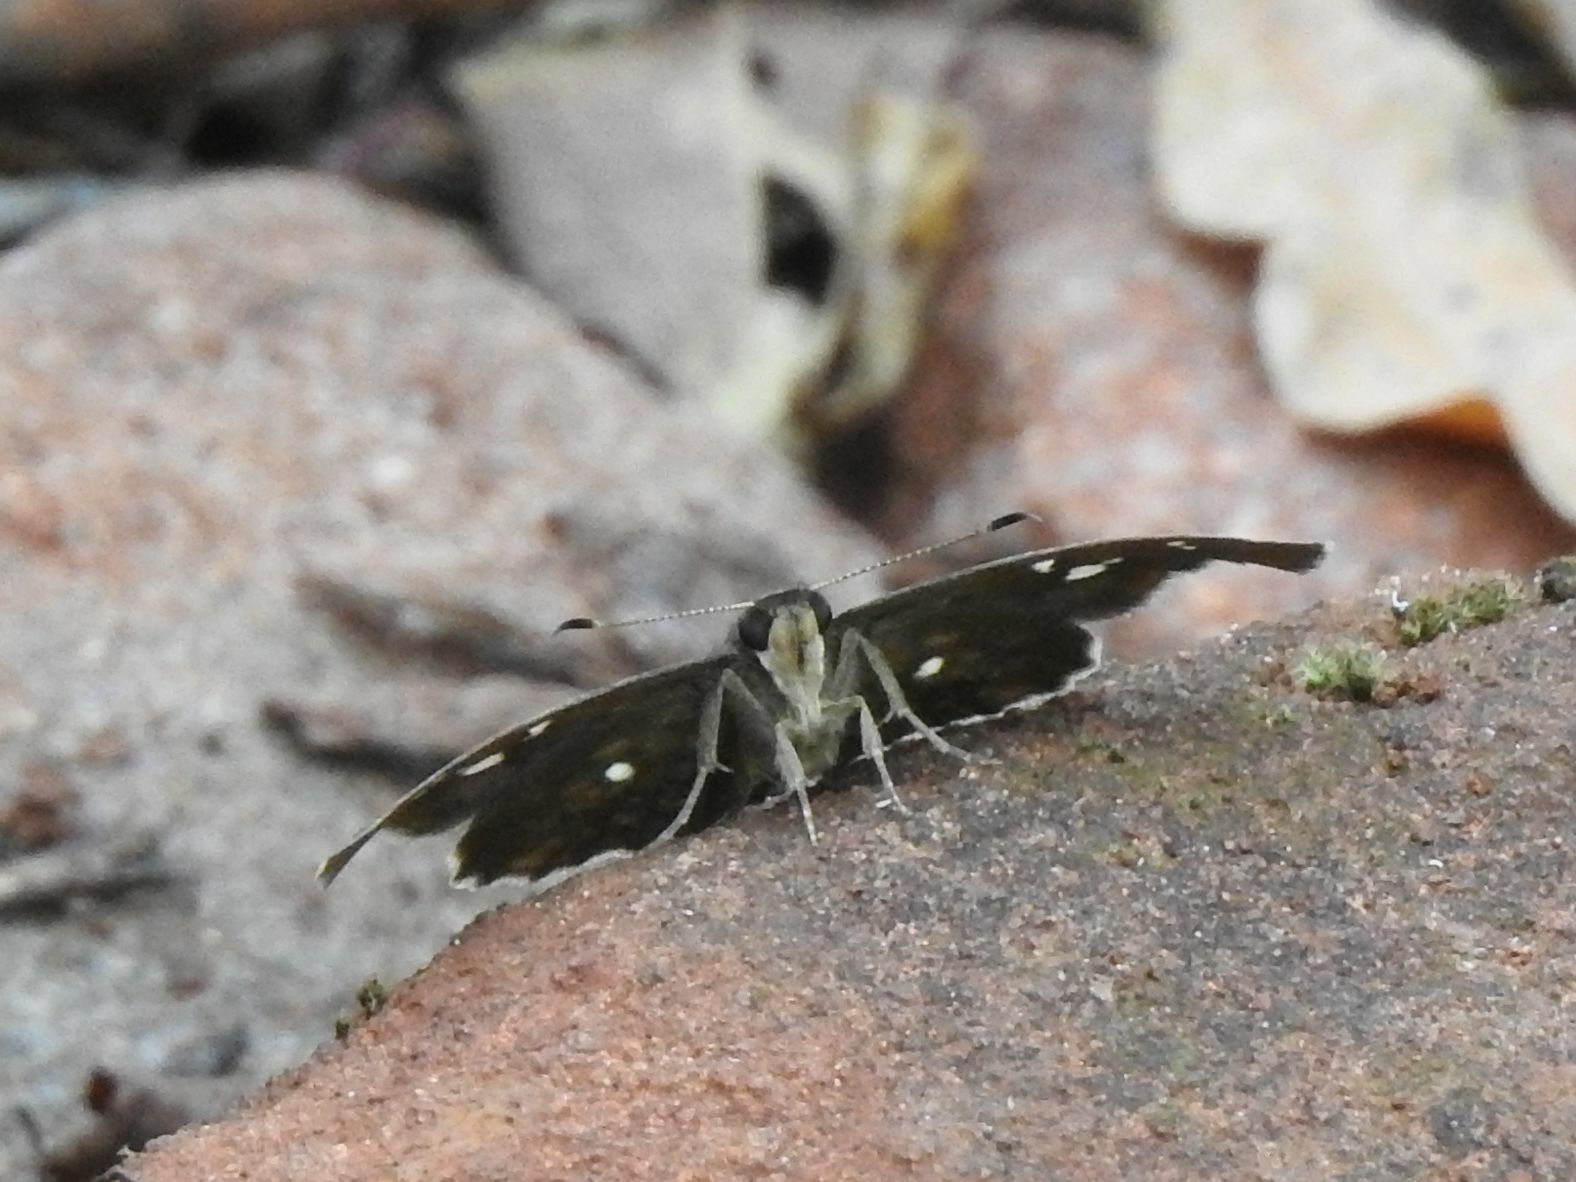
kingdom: Animalia
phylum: Arthropoda
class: Insecta
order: Lepidoptera
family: Hesperiidae
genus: Sarangesa
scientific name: Sarangesa motozi
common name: Forest elfin
